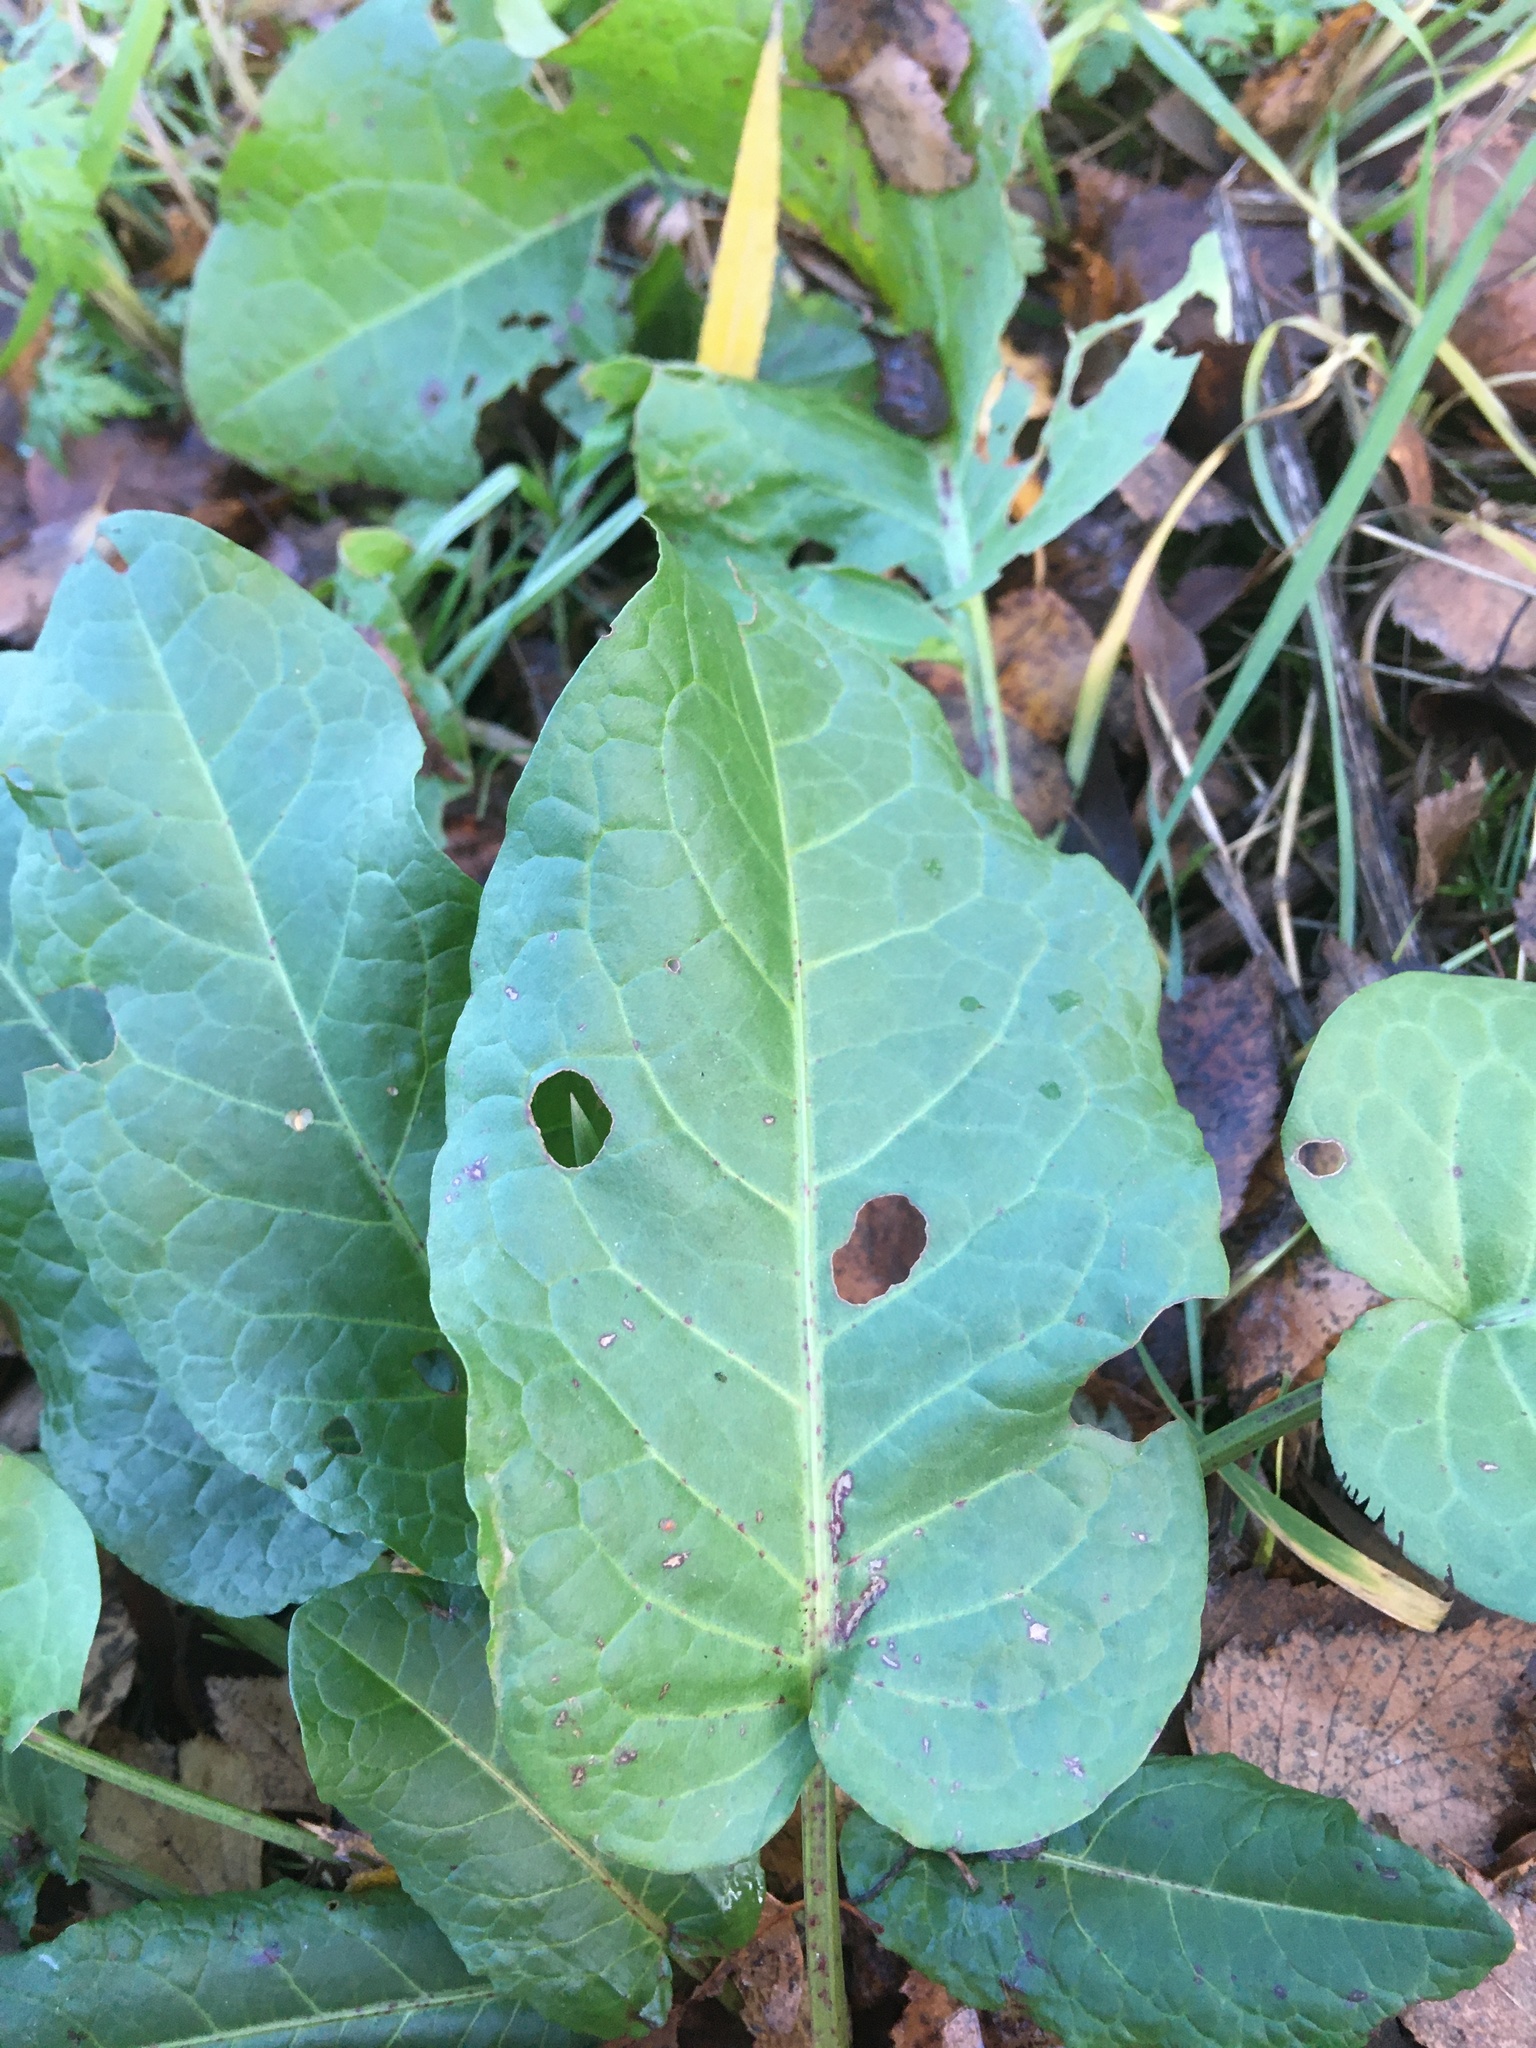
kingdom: Plantae
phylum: Tracheophyta
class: Magnoliopsida
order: Caryophyllales
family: Polygonaceae
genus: Rumex
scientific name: Rumex obtusifolius
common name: Bitter dock
